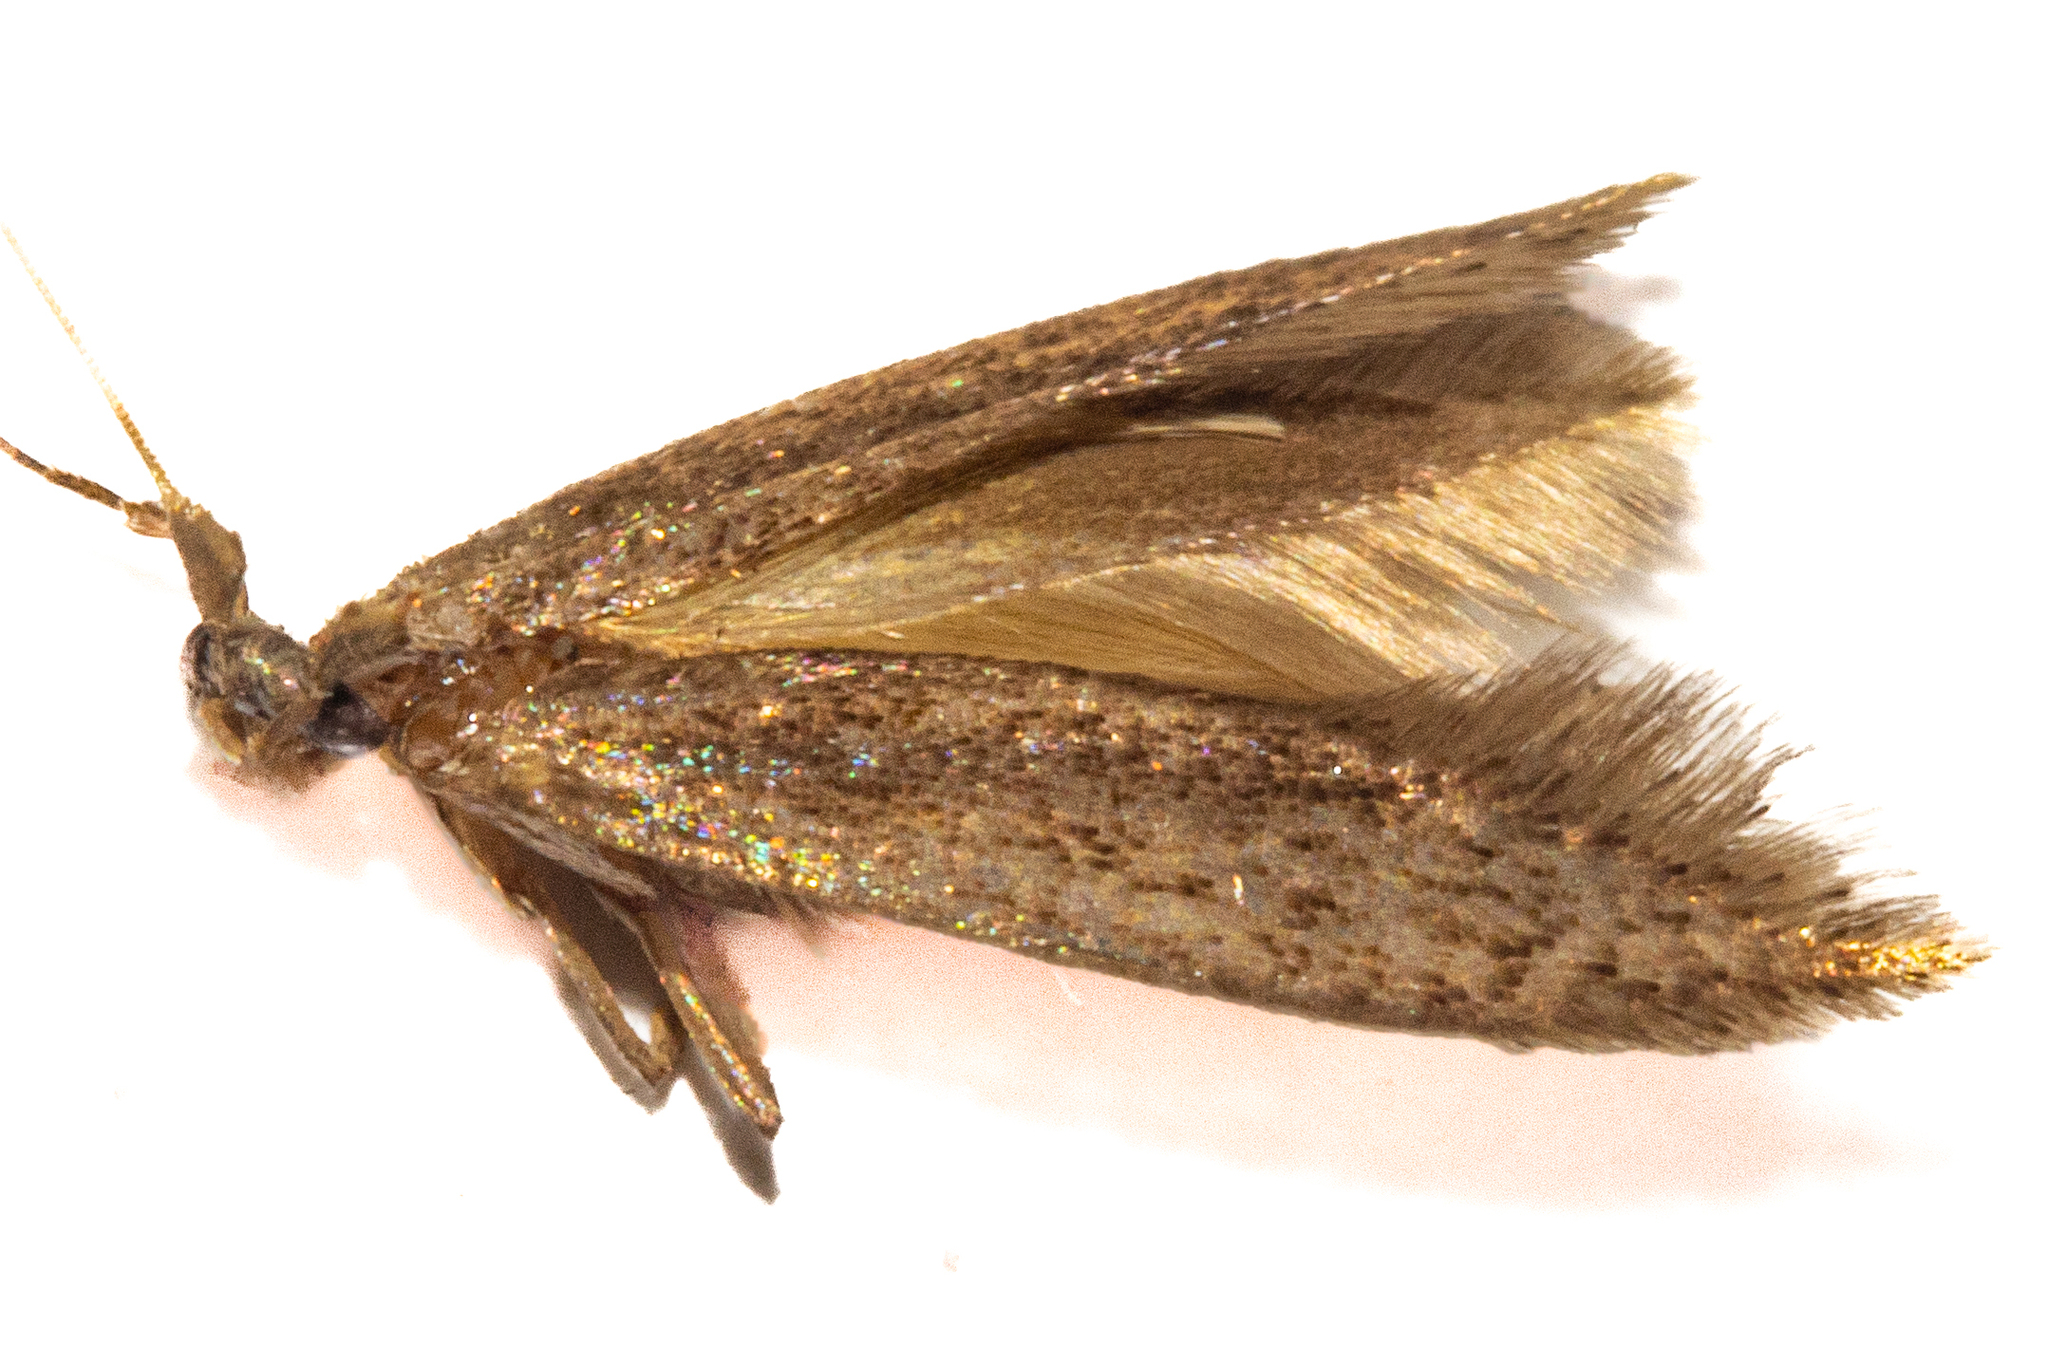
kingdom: Animalia
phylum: Arthropoda
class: Insecta
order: Lepidoptera
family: Tineidae
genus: Opogona
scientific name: Opogona omoscopa
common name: Moth
